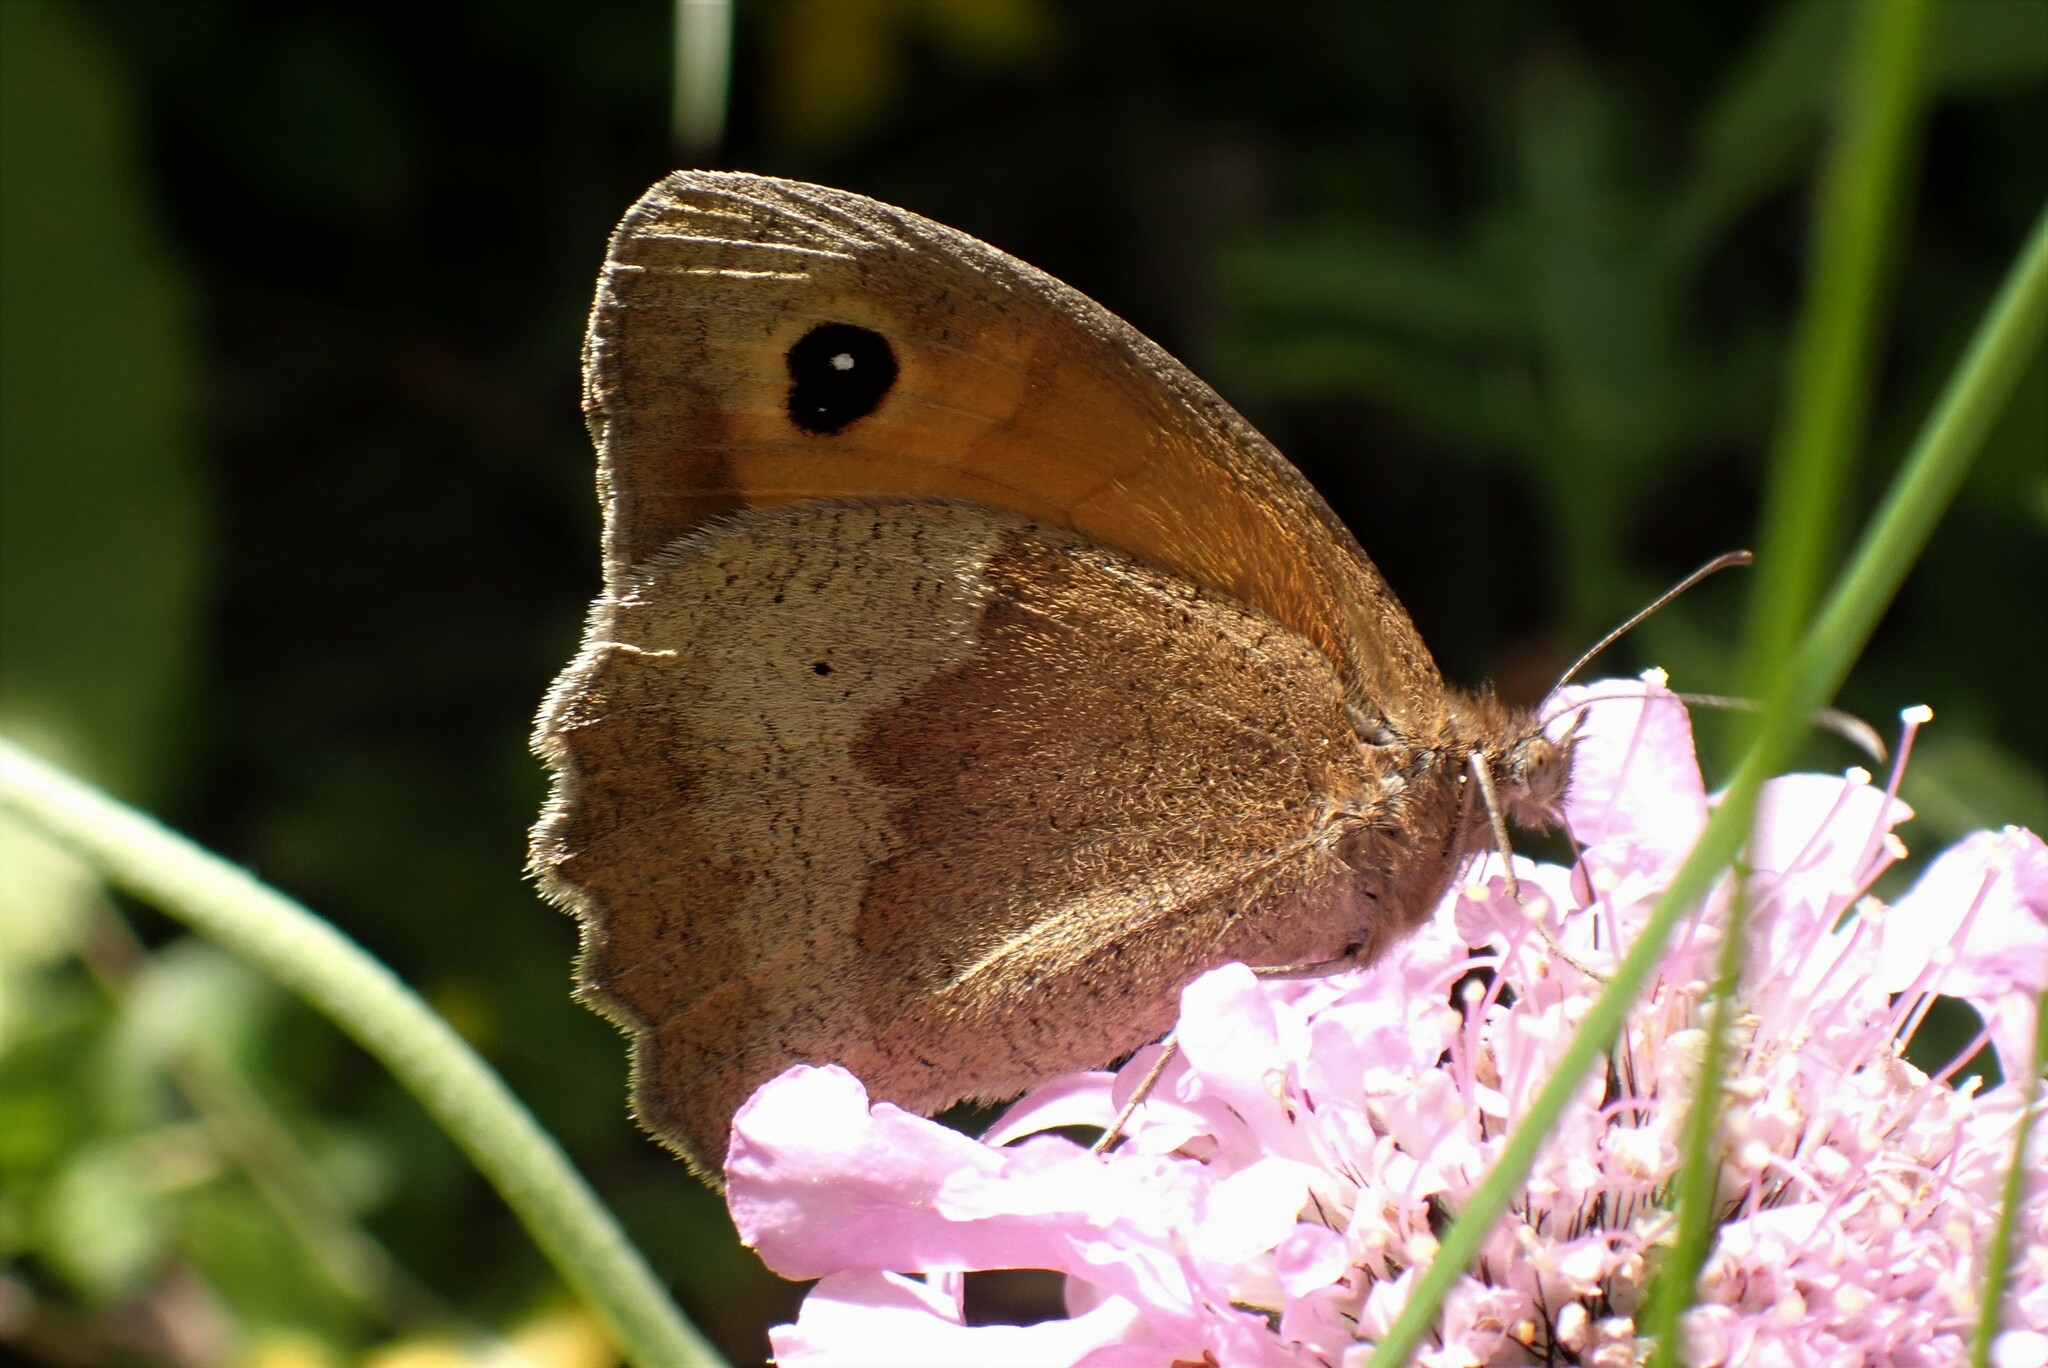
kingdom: Animalia
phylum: Arthropoda
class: Insecta
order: Lepidoptera
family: Nymphalidae
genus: Maniola
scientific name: Maniola jurtina
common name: Meadow brown
